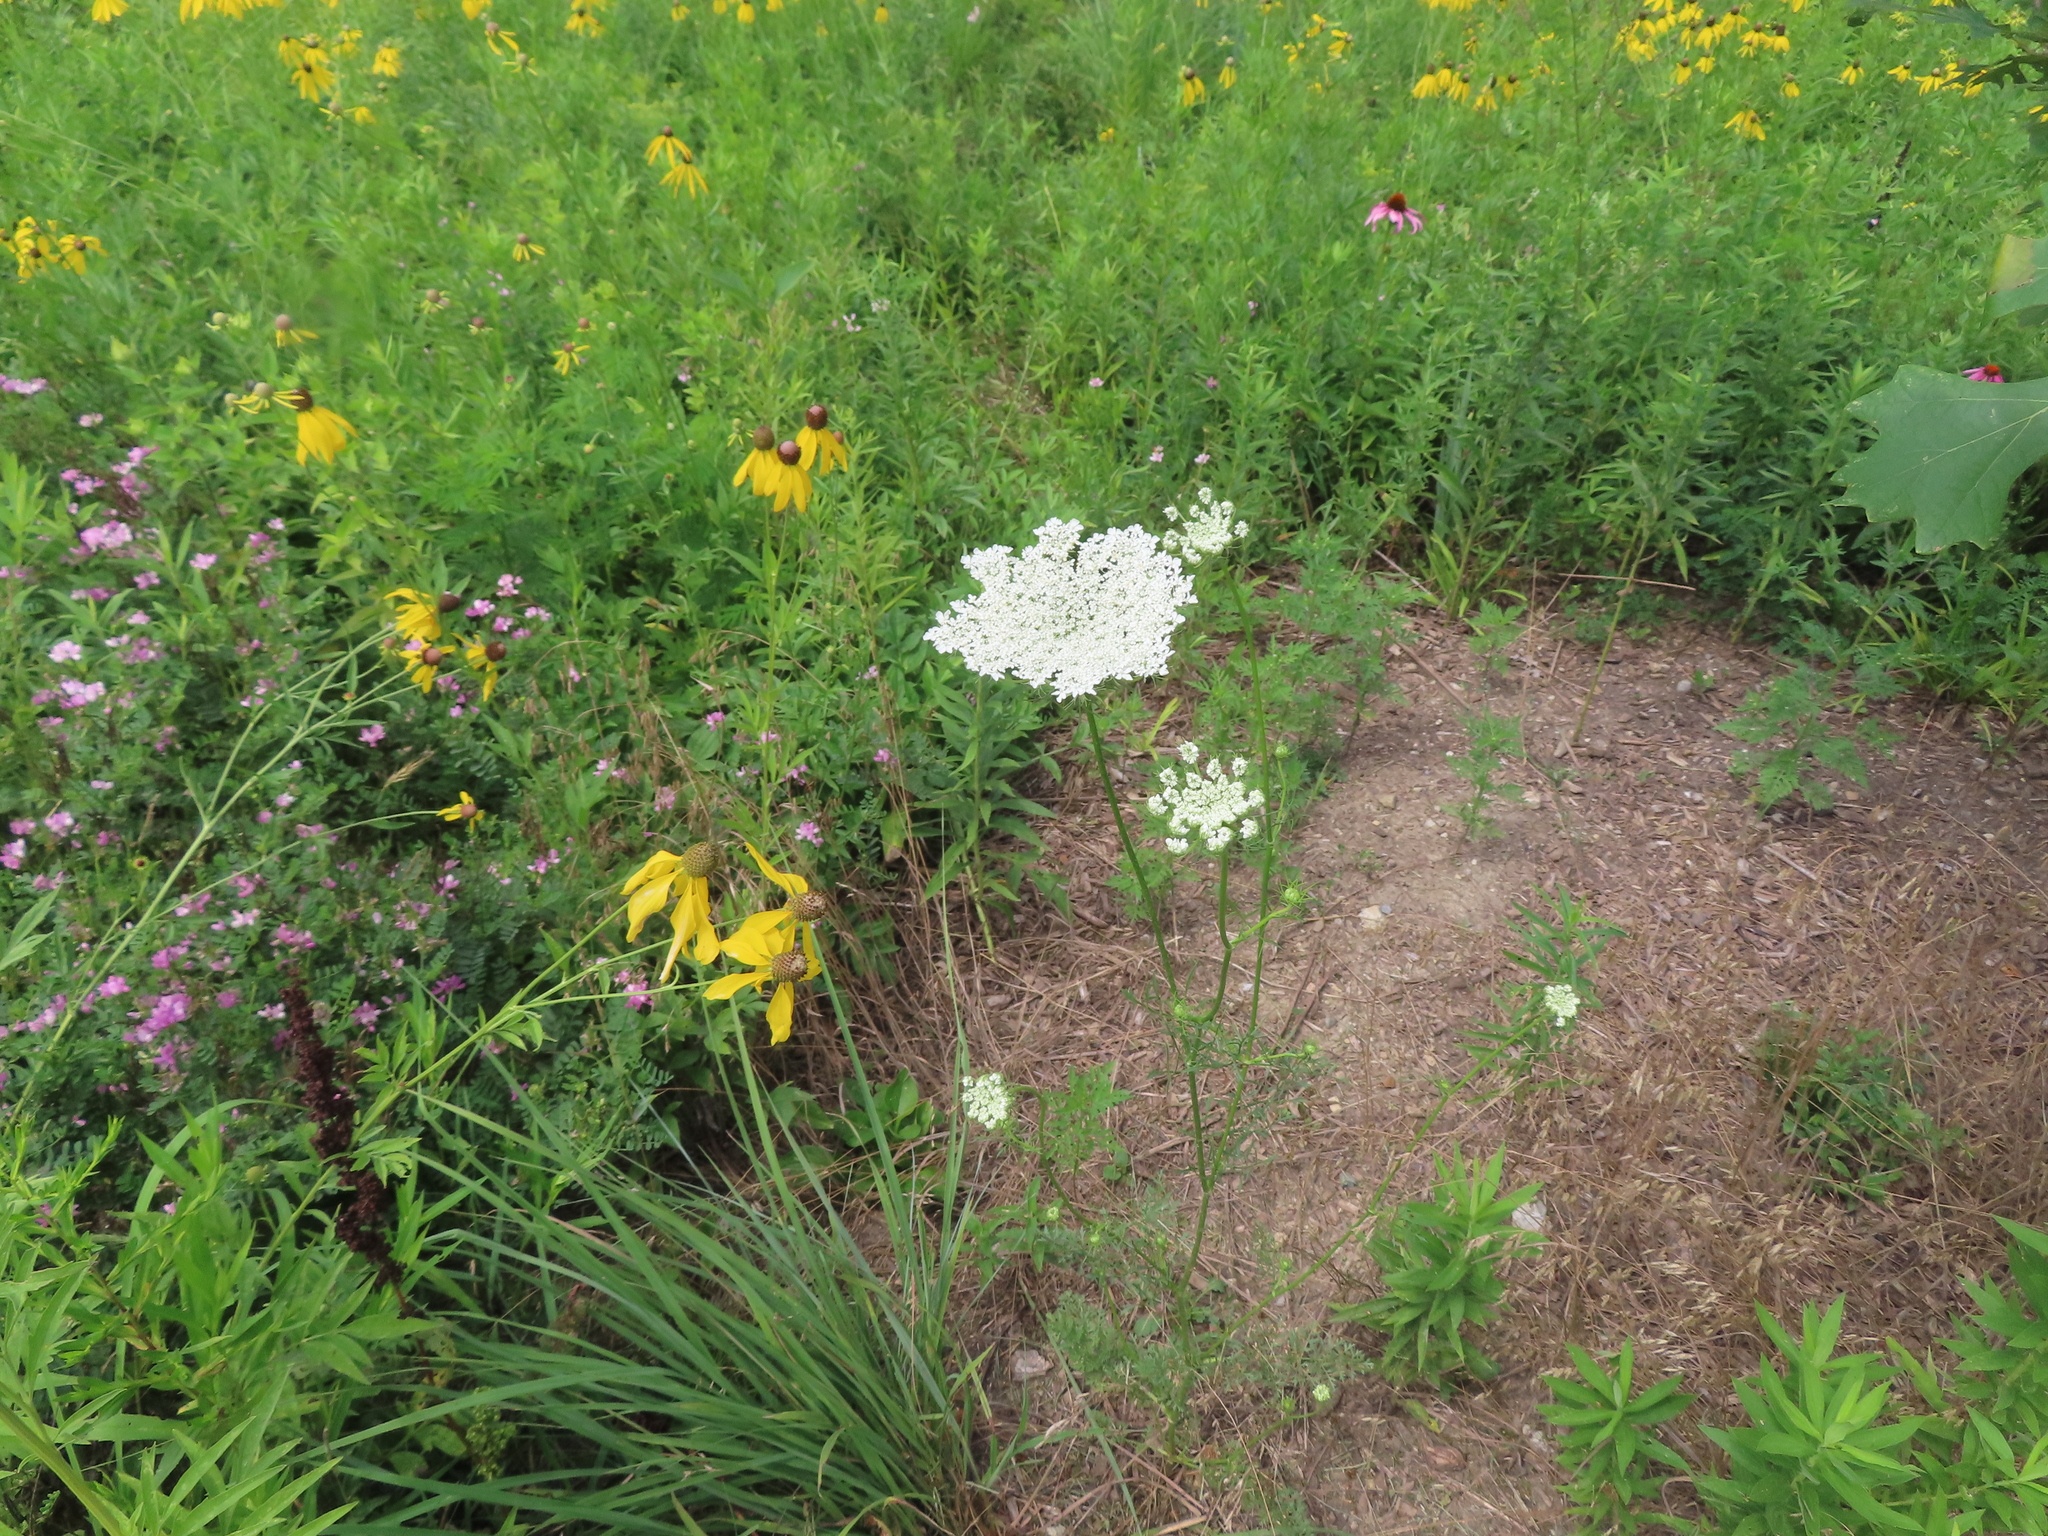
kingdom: Plantae
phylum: Tracheophyta
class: Magnoliopsida
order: Apiales
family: Apiaceae
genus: Daucus
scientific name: Daucus carota
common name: Wild carrot
